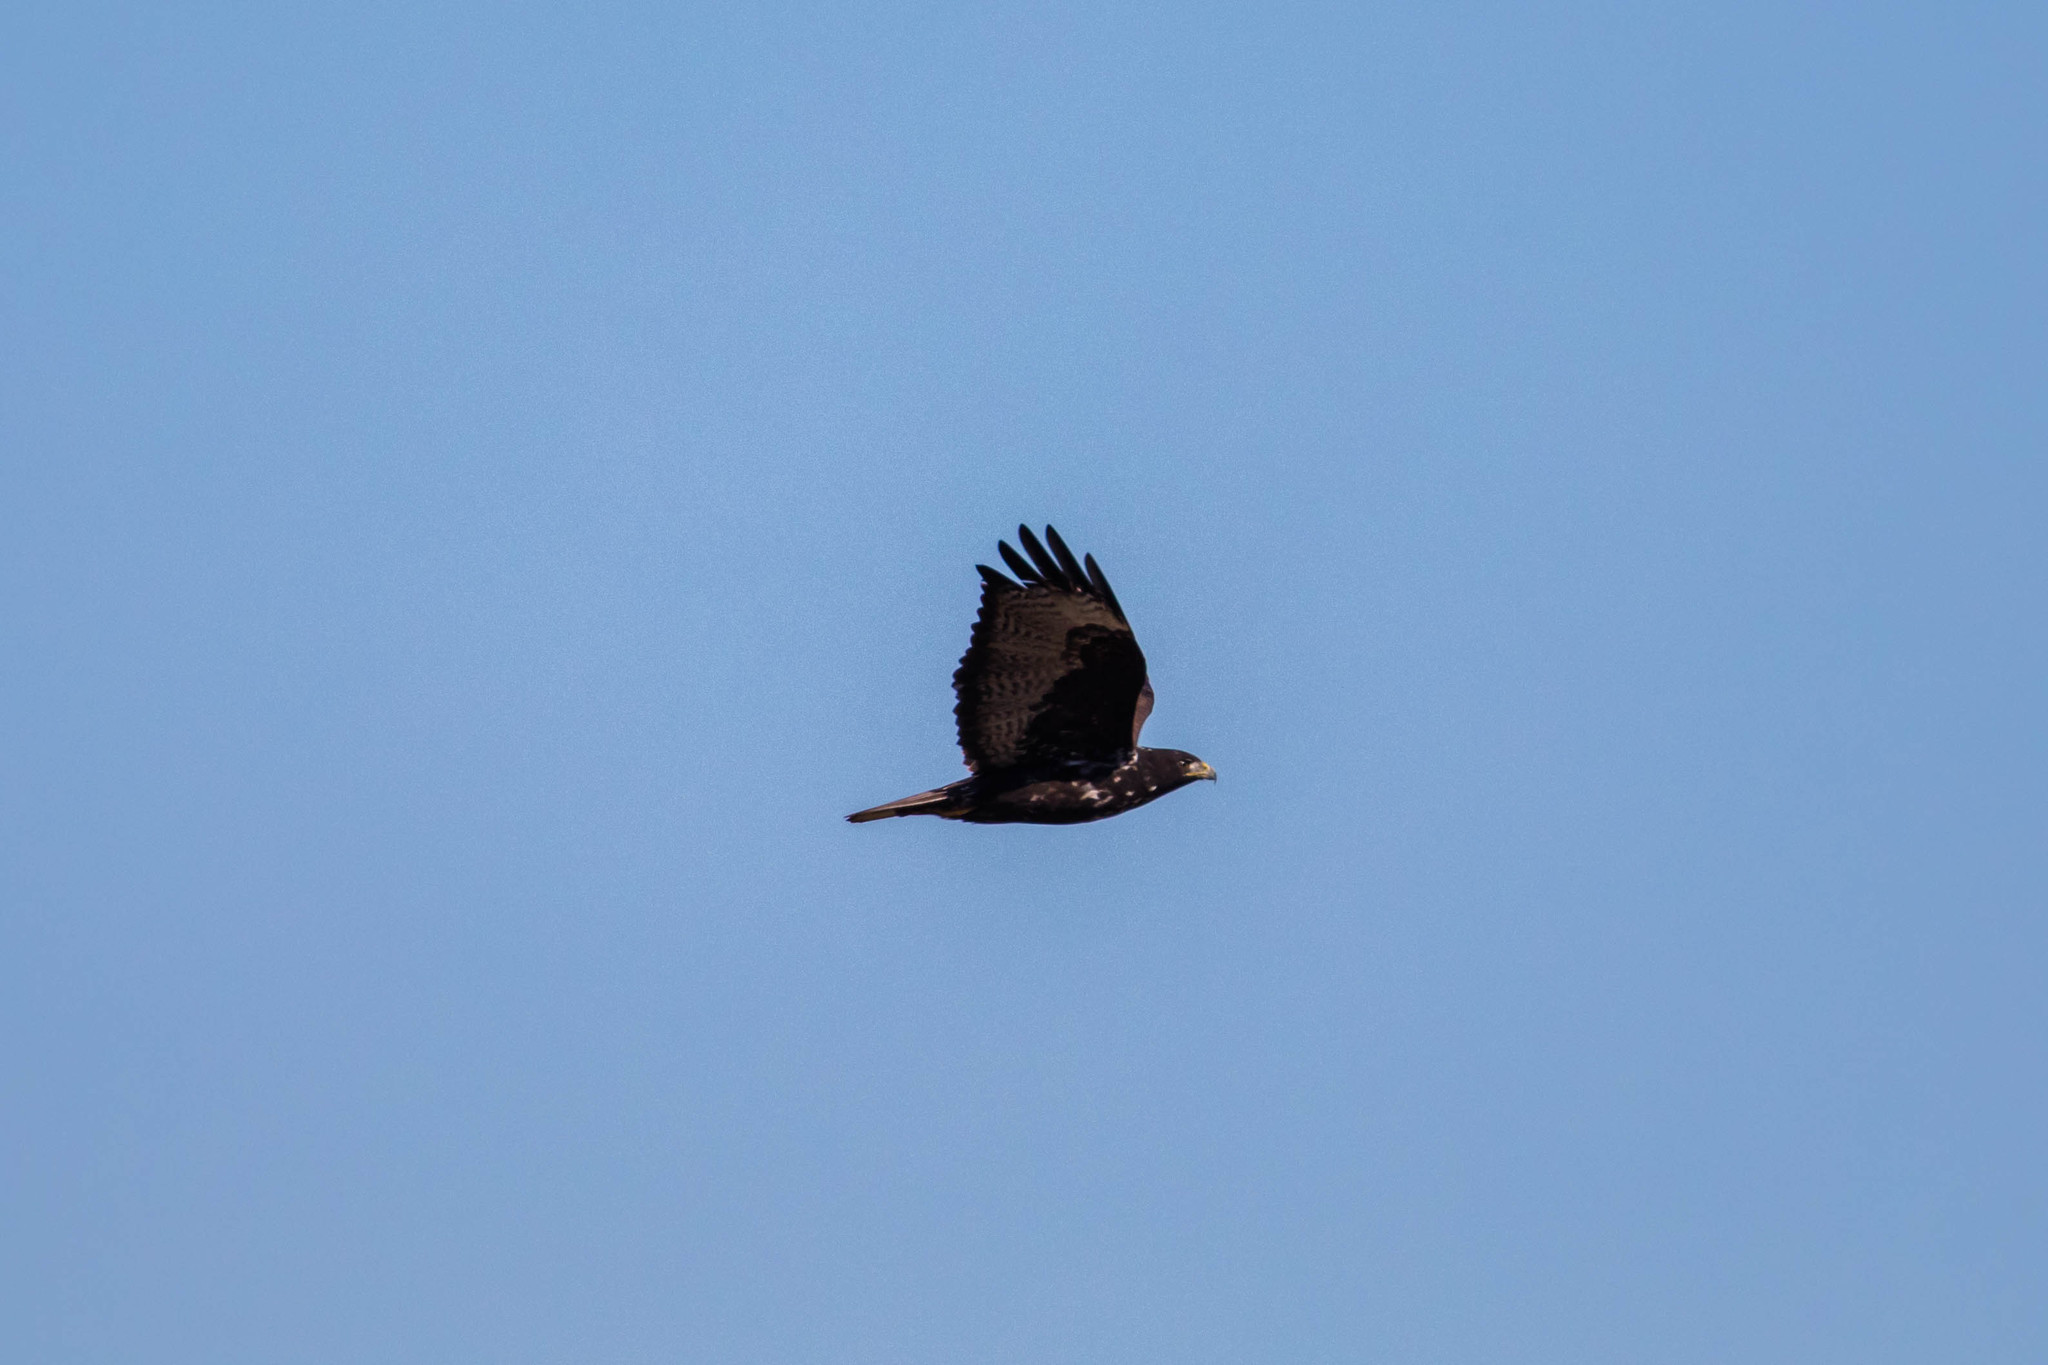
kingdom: Animalia
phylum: Chordata
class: Aves
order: Accipitriformes
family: Accipitridae
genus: Buteo
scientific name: Buteo jamaicensis
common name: Red-tailed hawk
